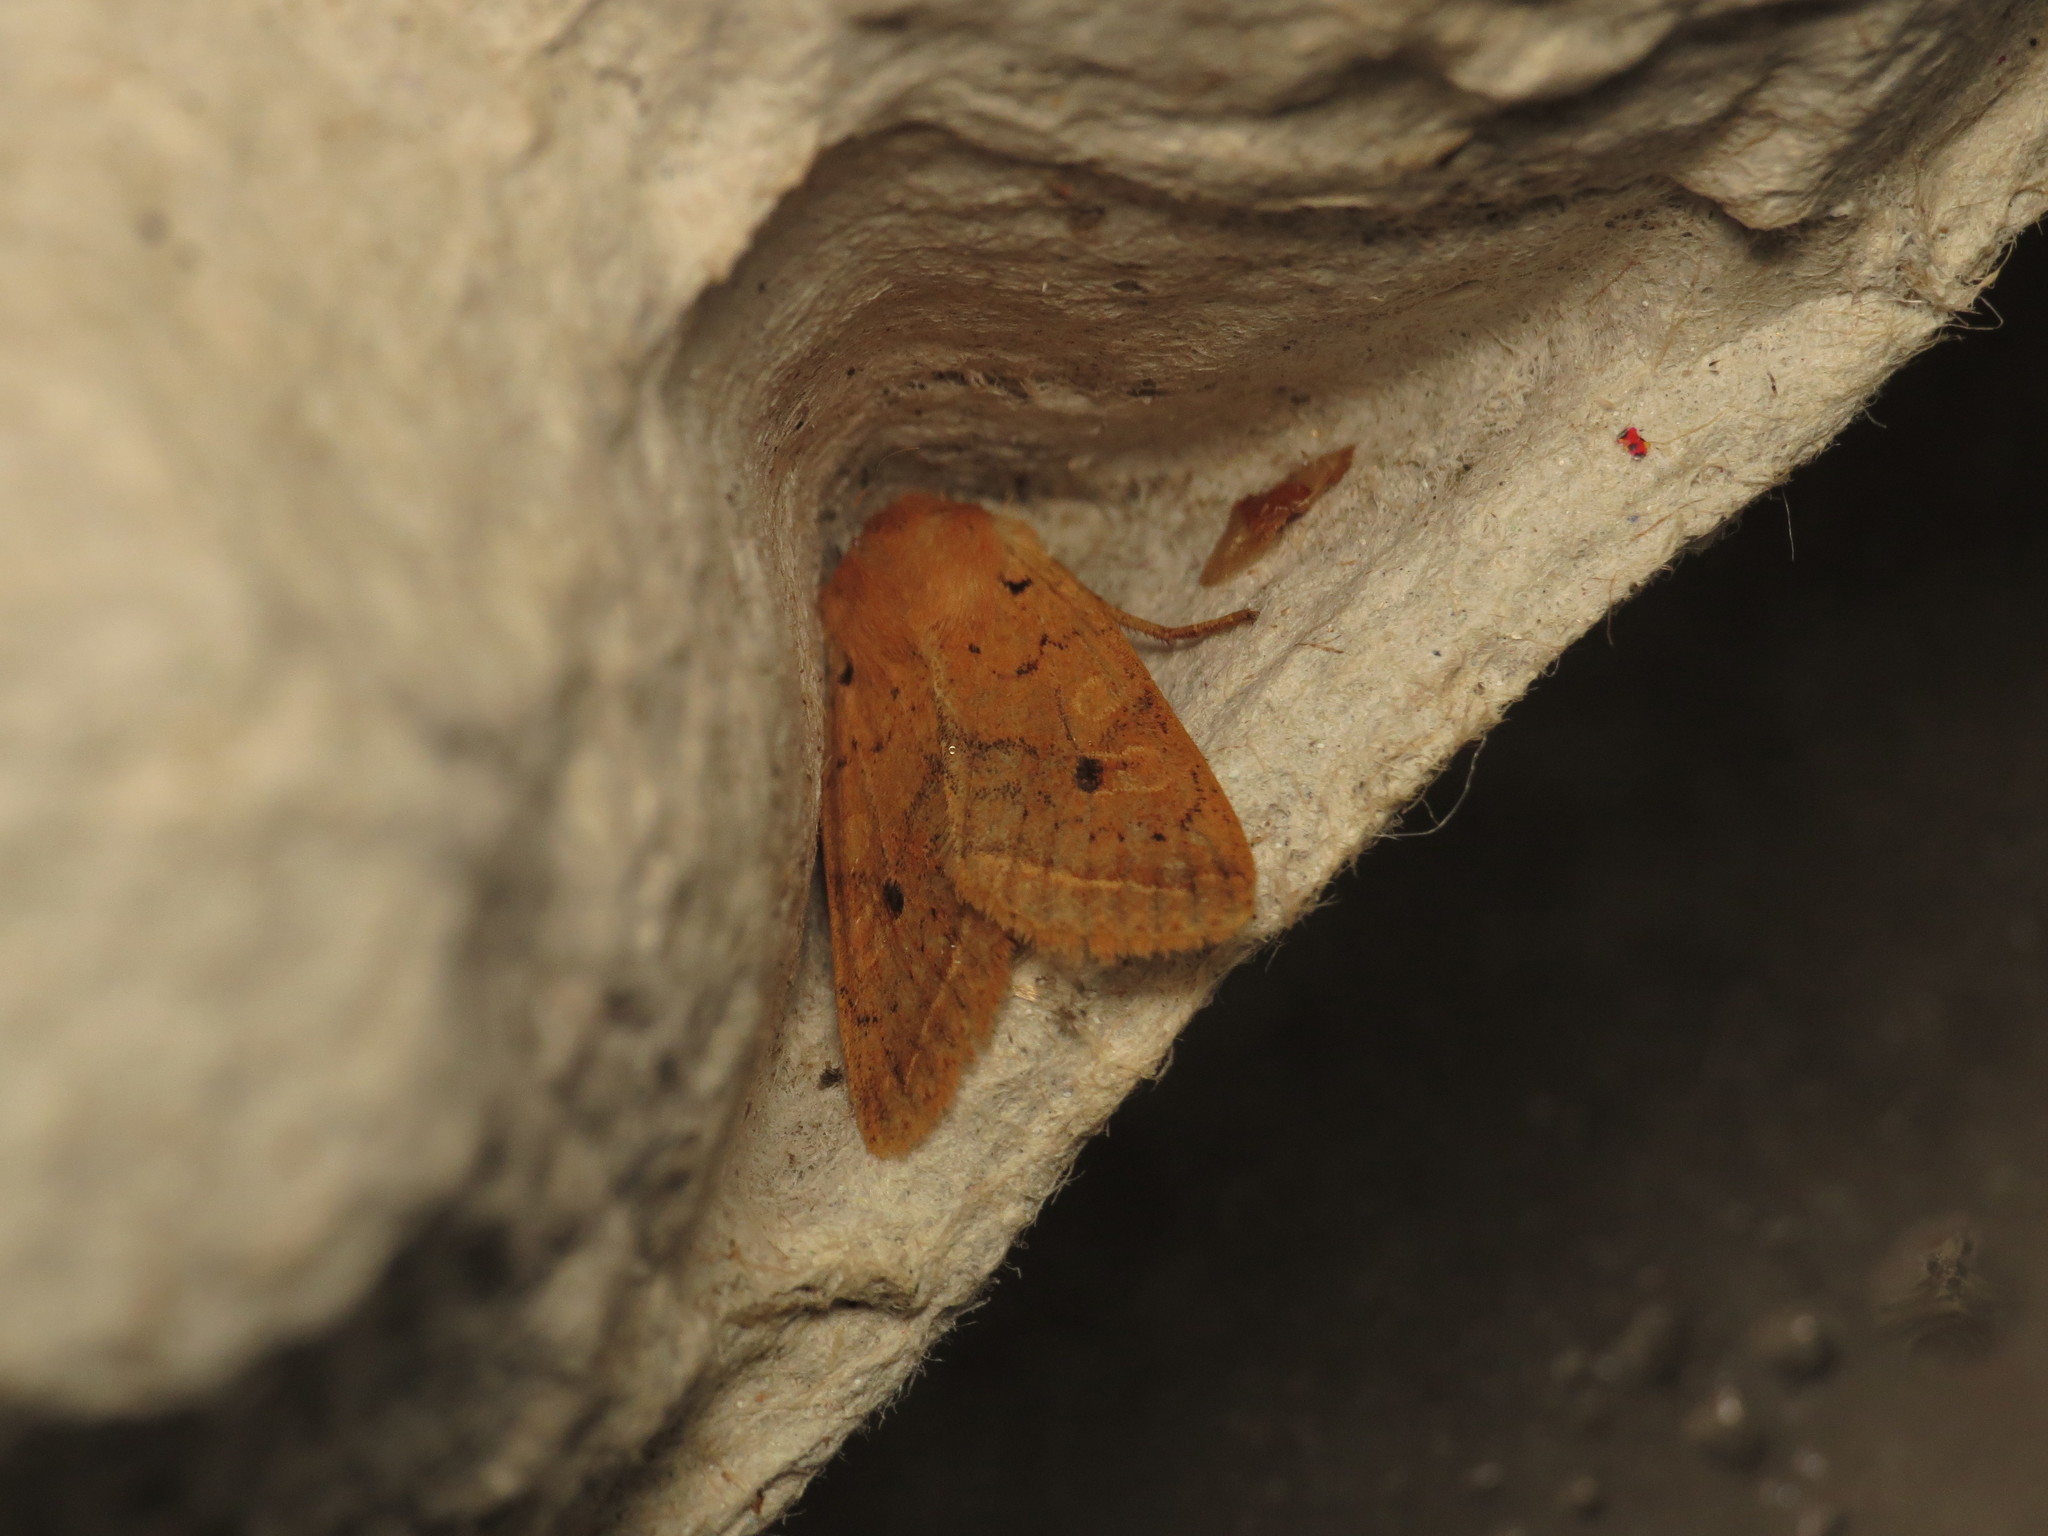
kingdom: Animalia
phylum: Arthropoda
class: Insecta
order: Lepidoptera
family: Noctuidae
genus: Agrochola
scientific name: Agrochola macilenta
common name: Yellow-line quaker
